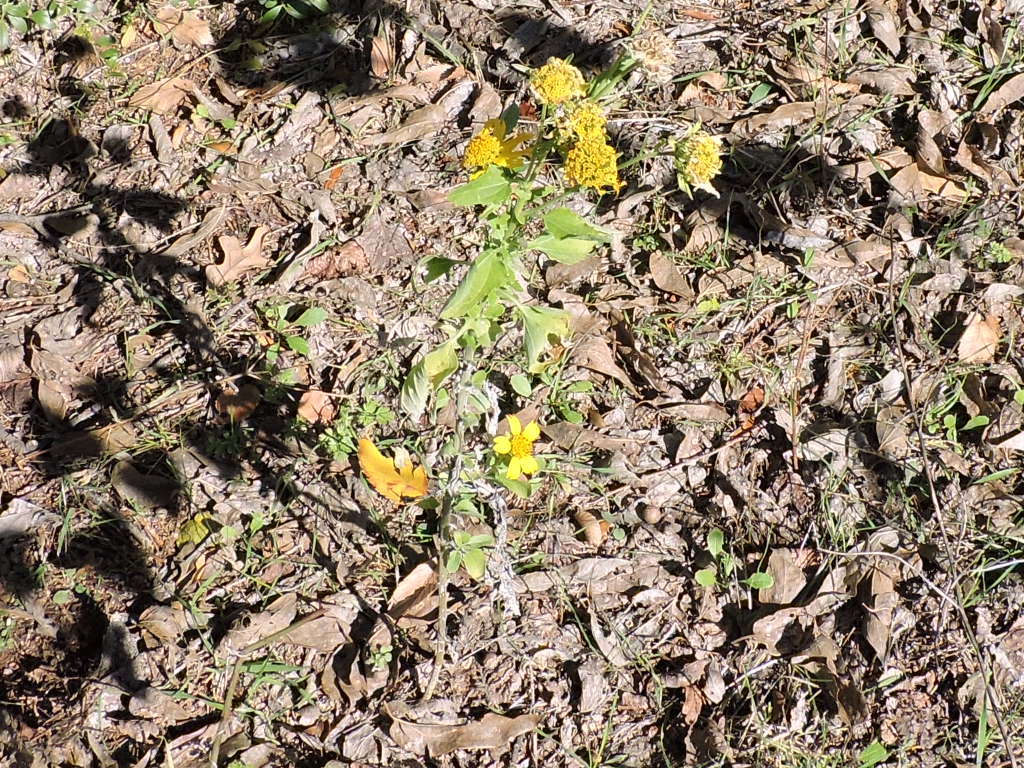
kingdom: Plantae
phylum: Tracheophyta
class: Magnoliopsida
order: Asterales
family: Asteraceae
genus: Verbesina
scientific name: Verbesina encelioides
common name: Golden crownbeard
